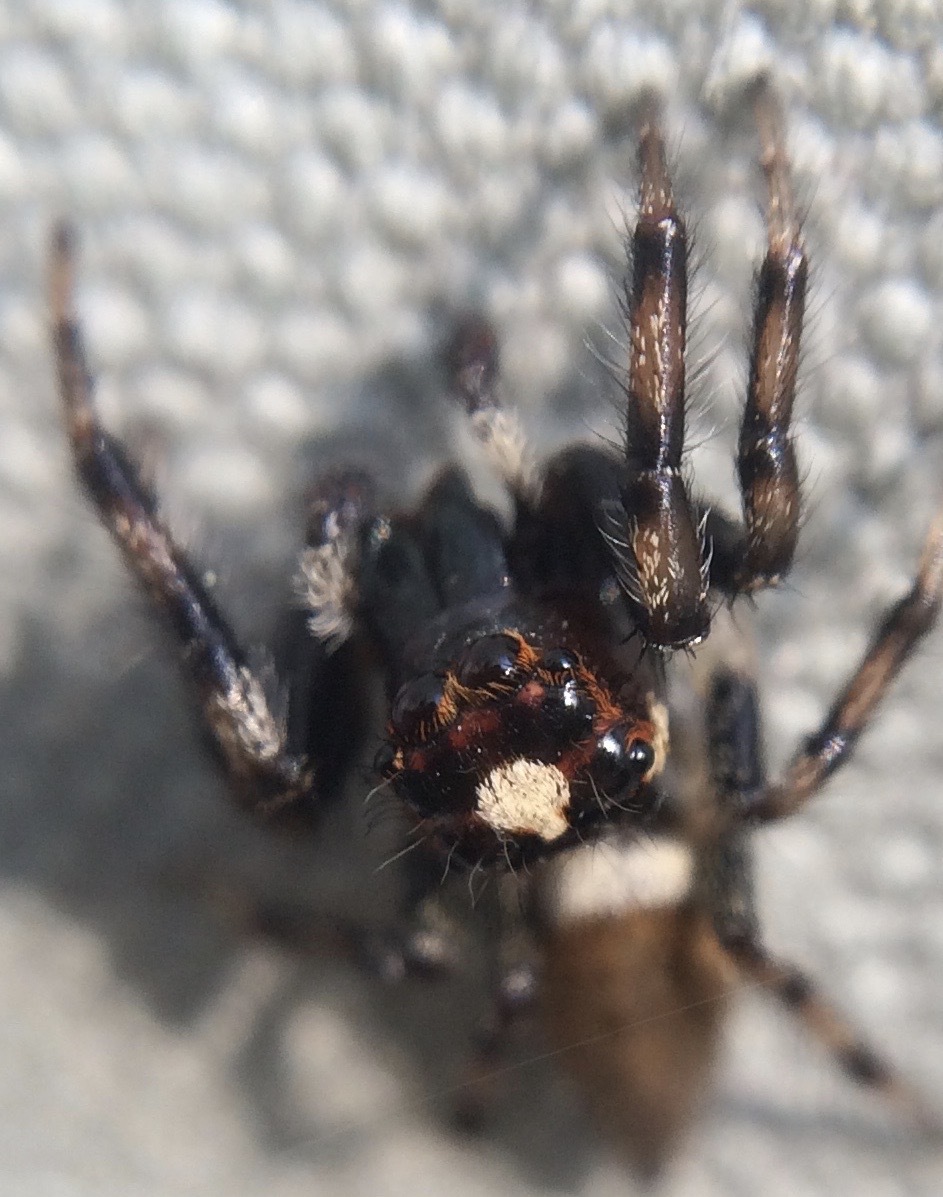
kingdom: Animalia
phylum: Arthropoda
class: Arachnida
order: Araneae
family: Salticidae
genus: Colonus
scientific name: Colonus hesperus
